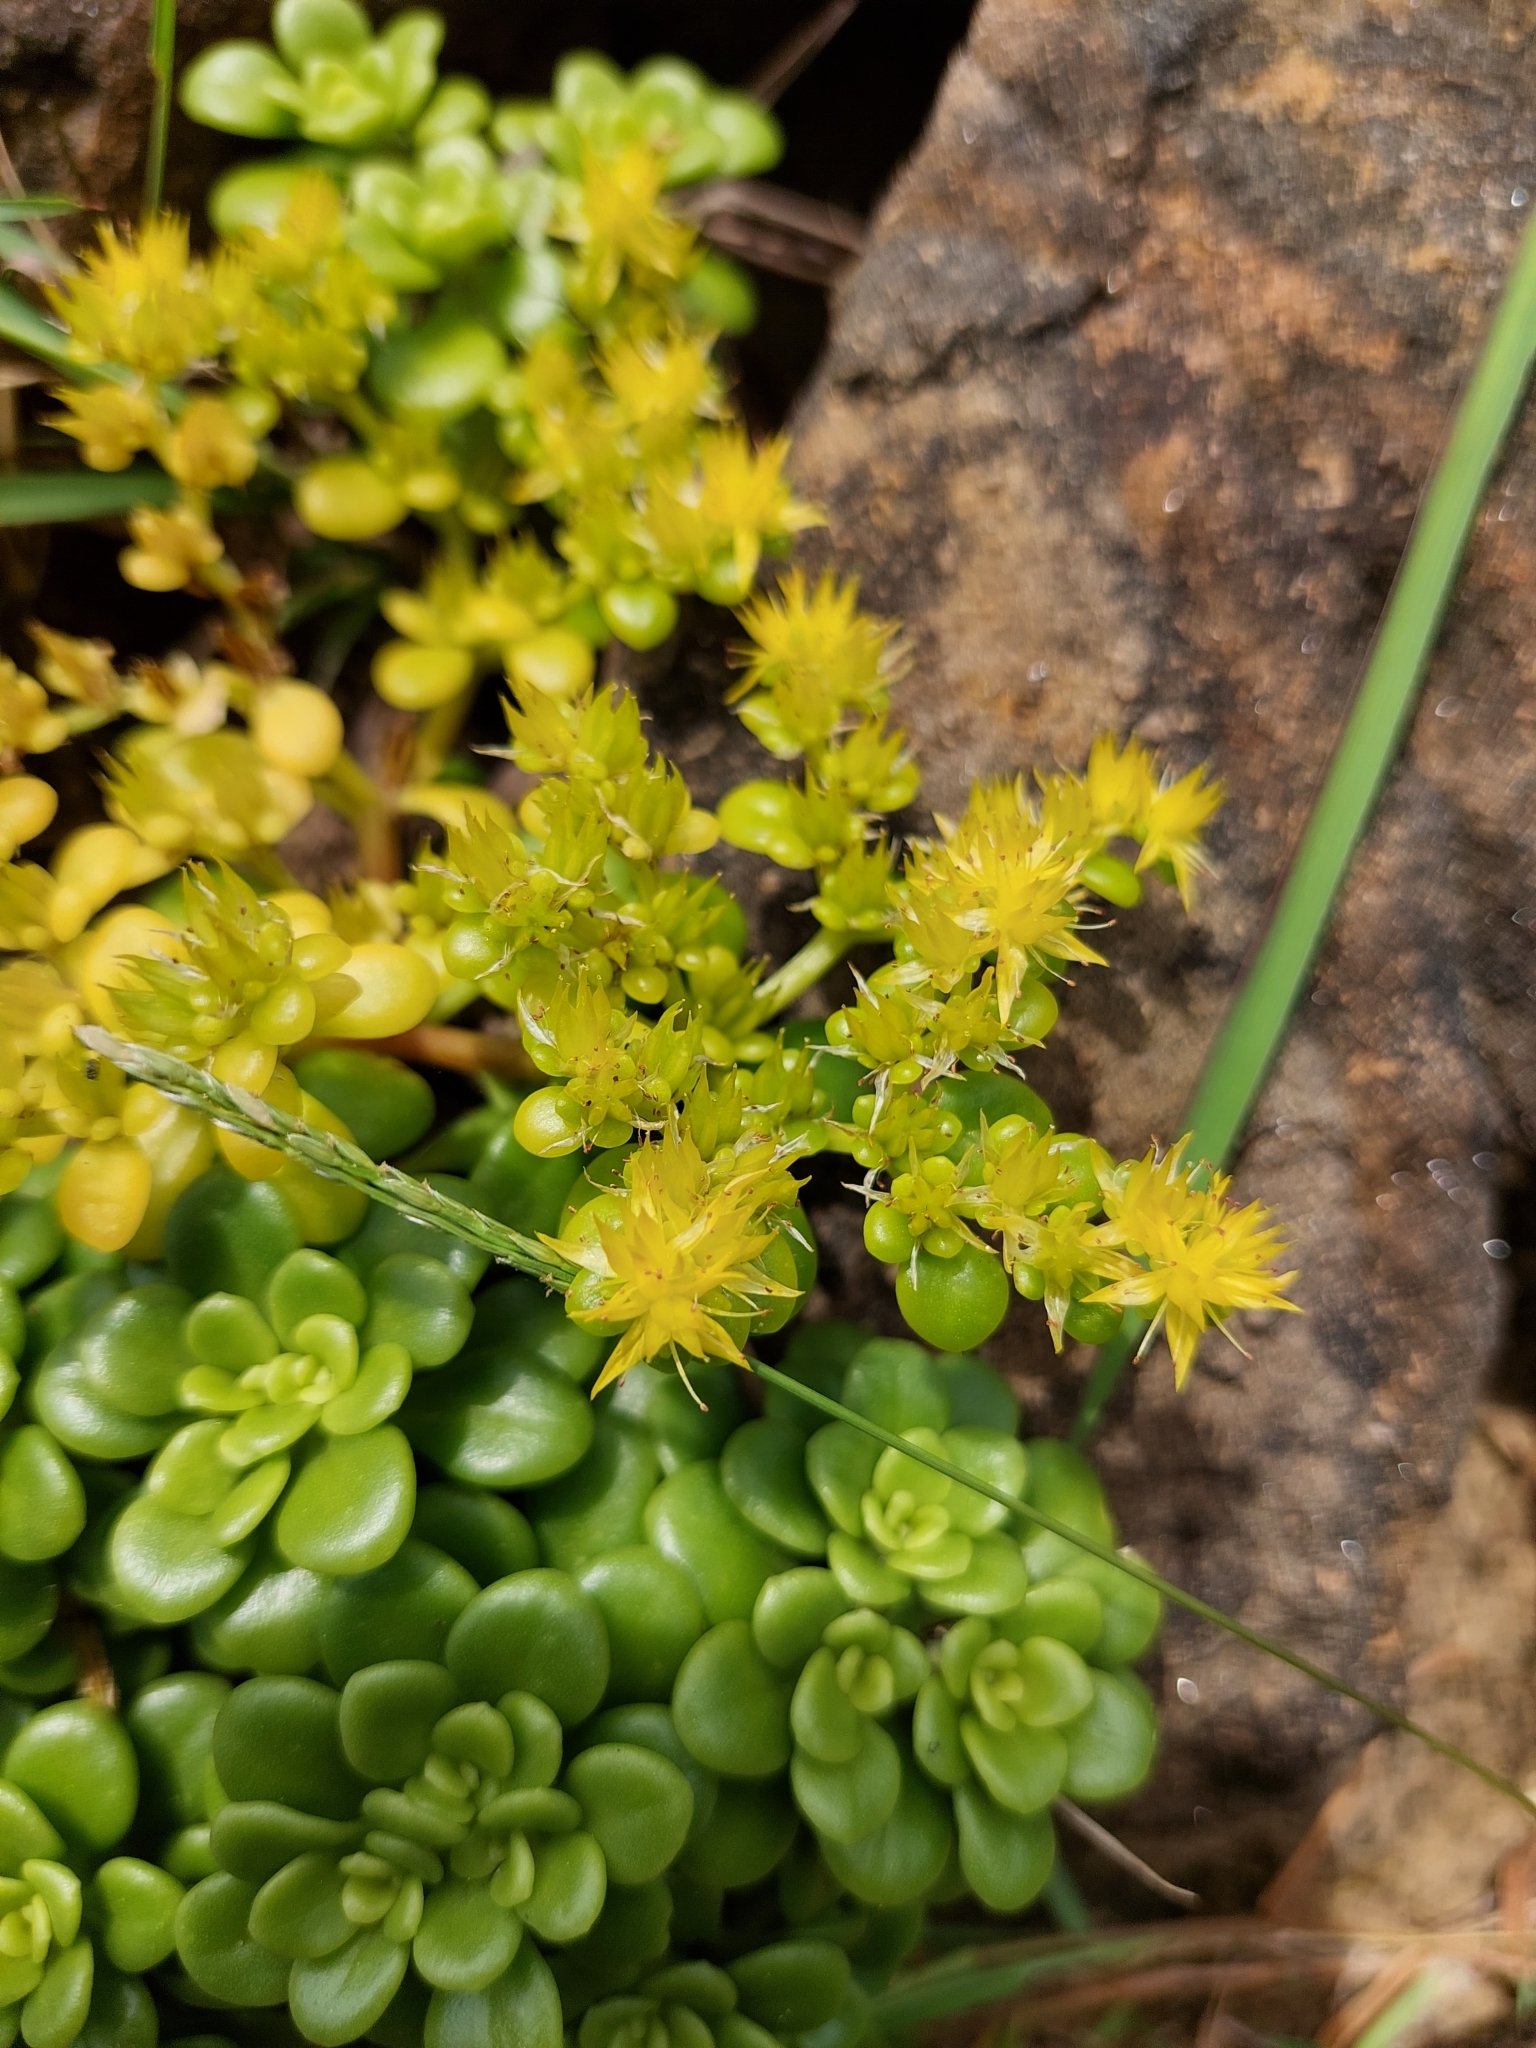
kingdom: Plantae
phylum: Tracheophyta
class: Magnoliopsida
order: Saxifragales
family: Crassulaceae
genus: Sedum
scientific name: Sedum formosanum
